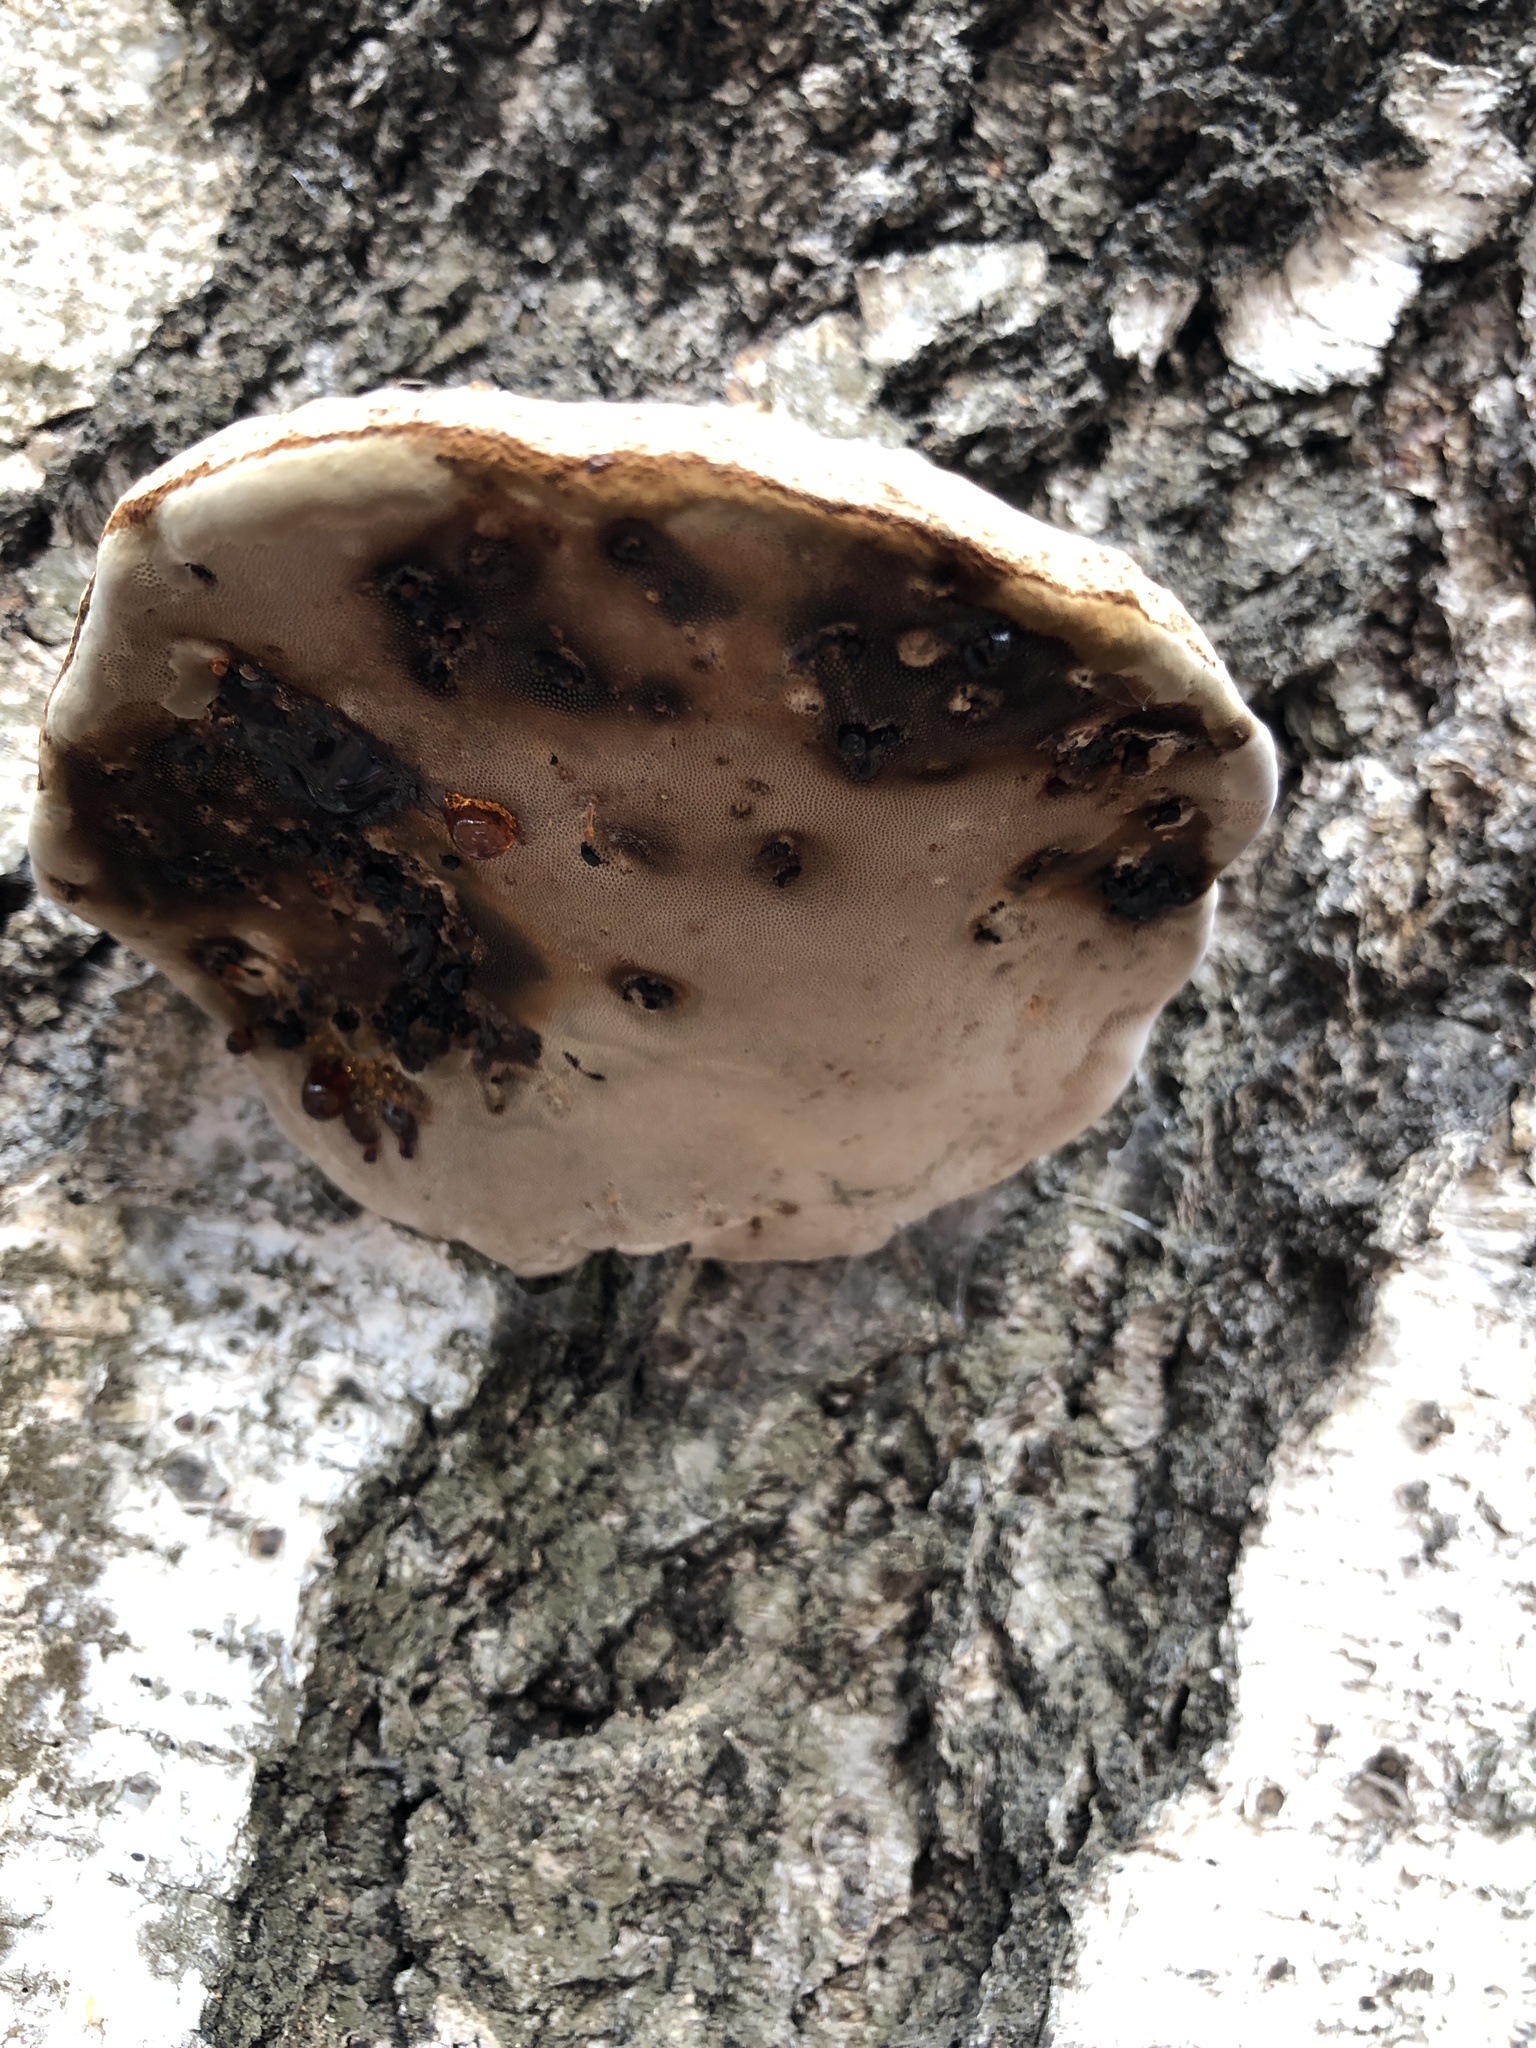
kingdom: Fungi
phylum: Basidiomycota
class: Agaricomycetes
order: Polyporales
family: Polyporaceae
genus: Fomes
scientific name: Fomes fomentarius
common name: Hoof fungus
